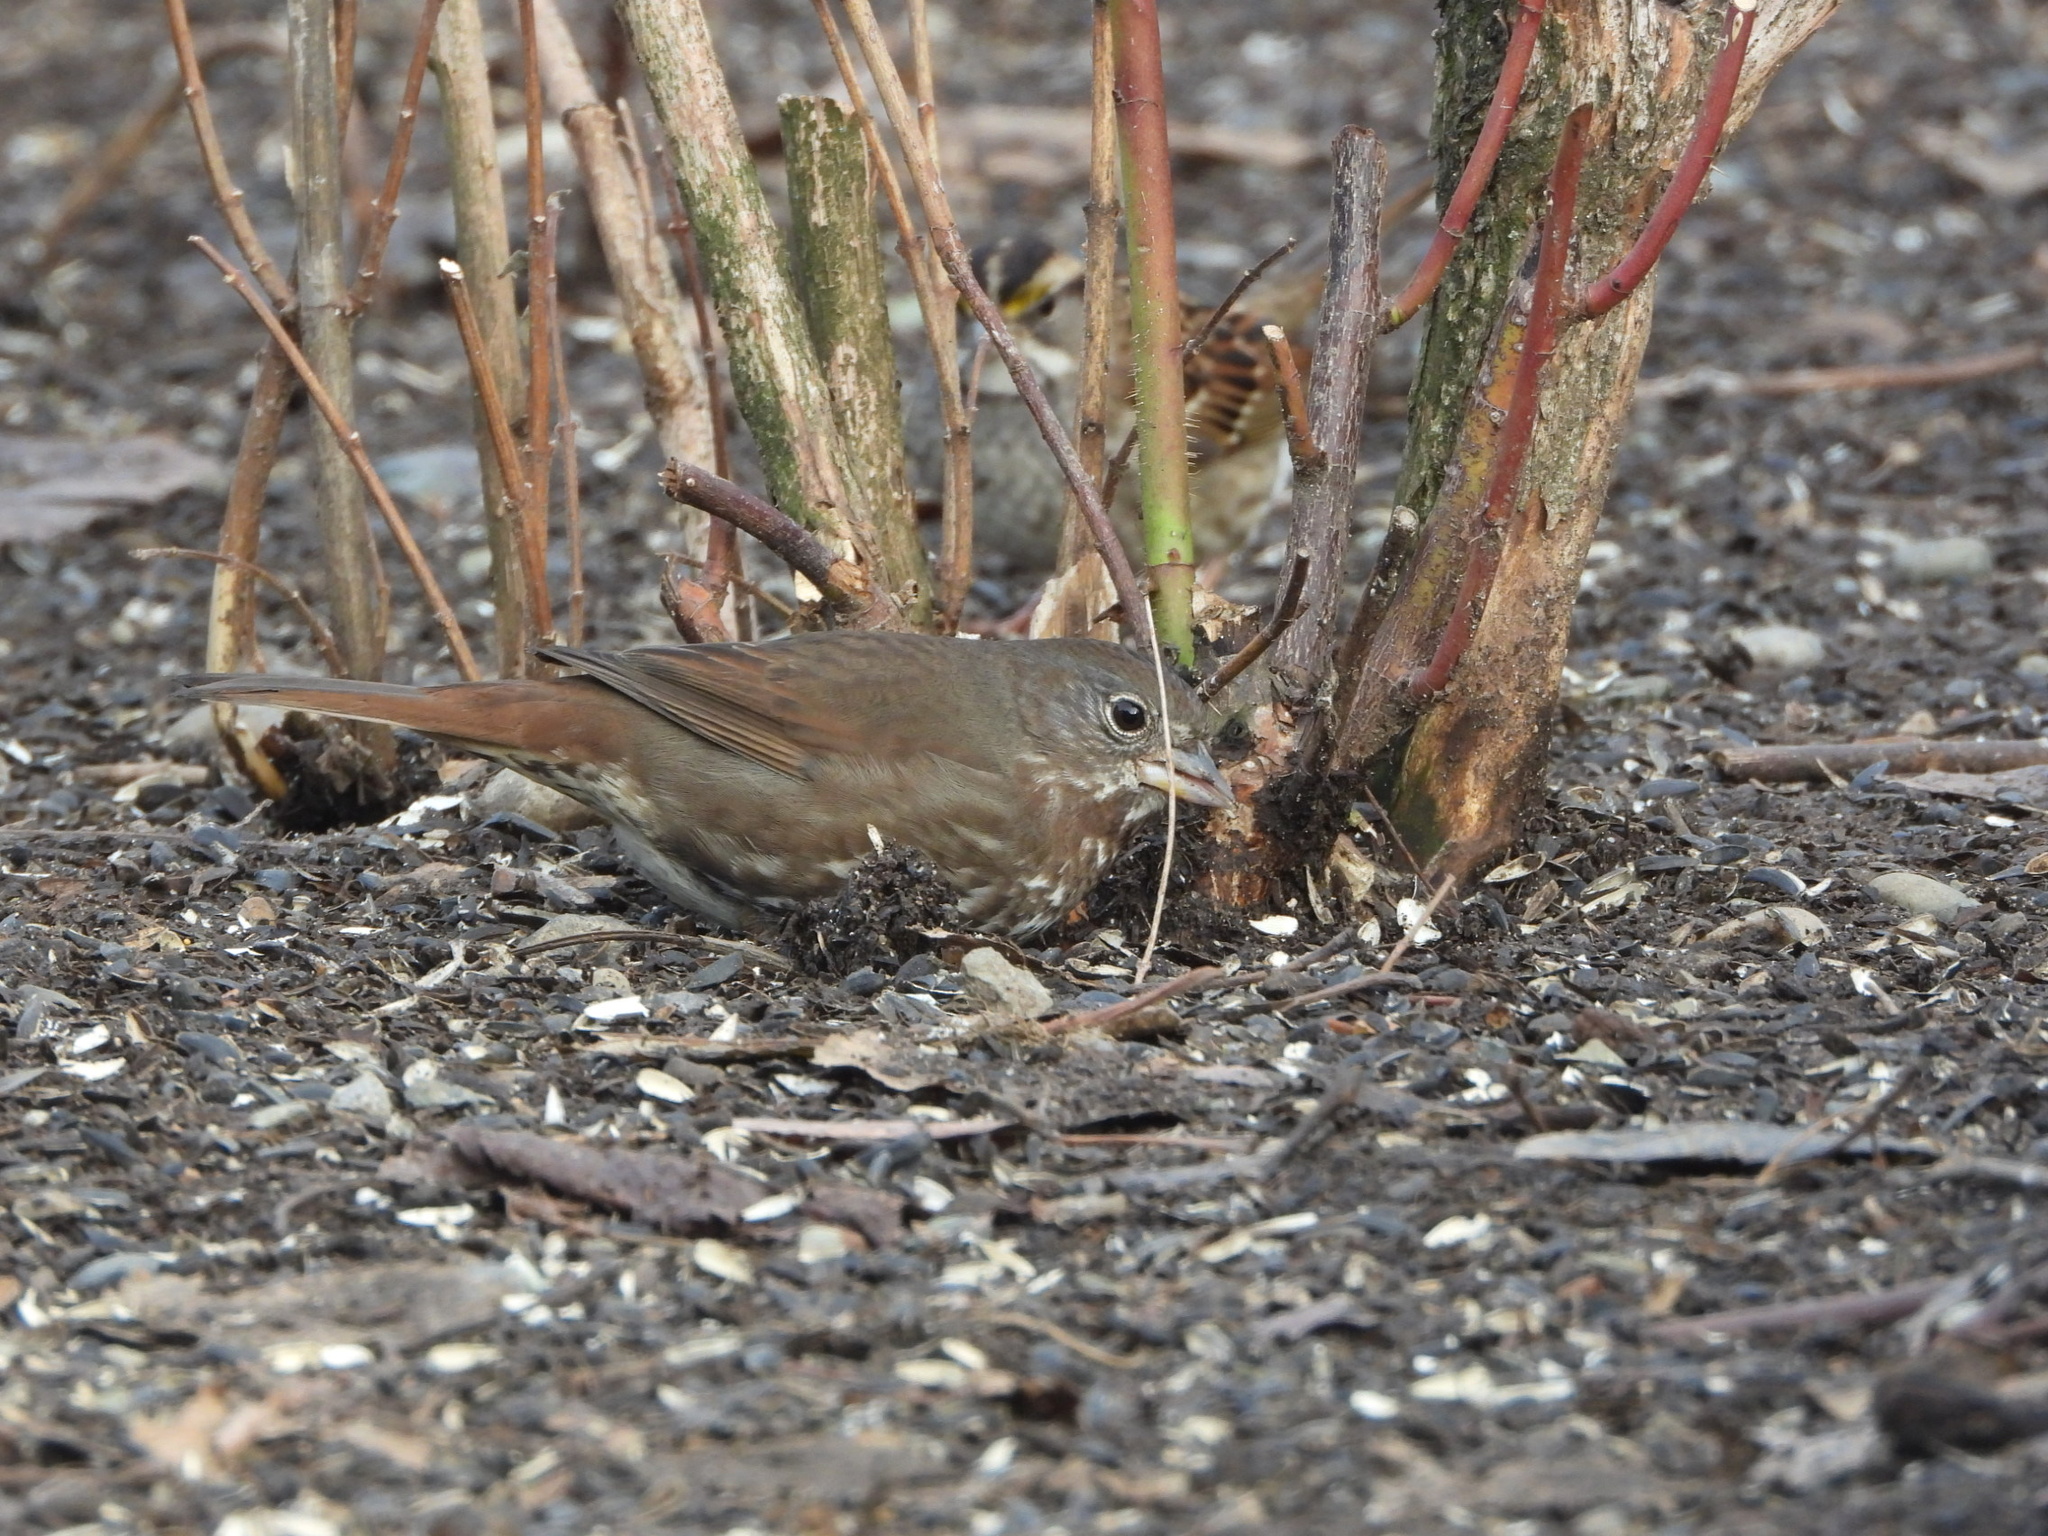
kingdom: Animalia
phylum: Chordata
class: Aves
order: Passeriformes
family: Passerellidae
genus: Passerella
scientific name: Passerella iliaca
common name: Fox sparrow
